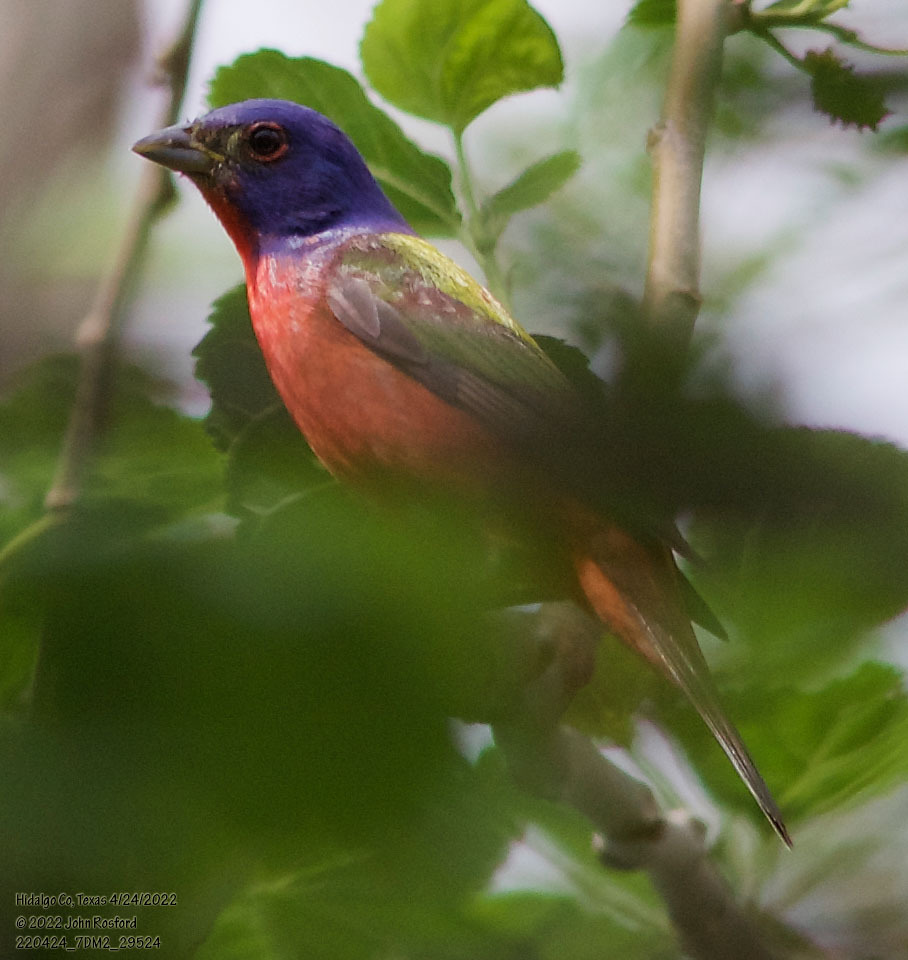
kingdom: Animalia
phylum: Chordata
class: Aves
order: Passeriformes
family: Cardinalidae
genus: Passerina
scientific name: Passerina ciris
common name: Painted bunting
